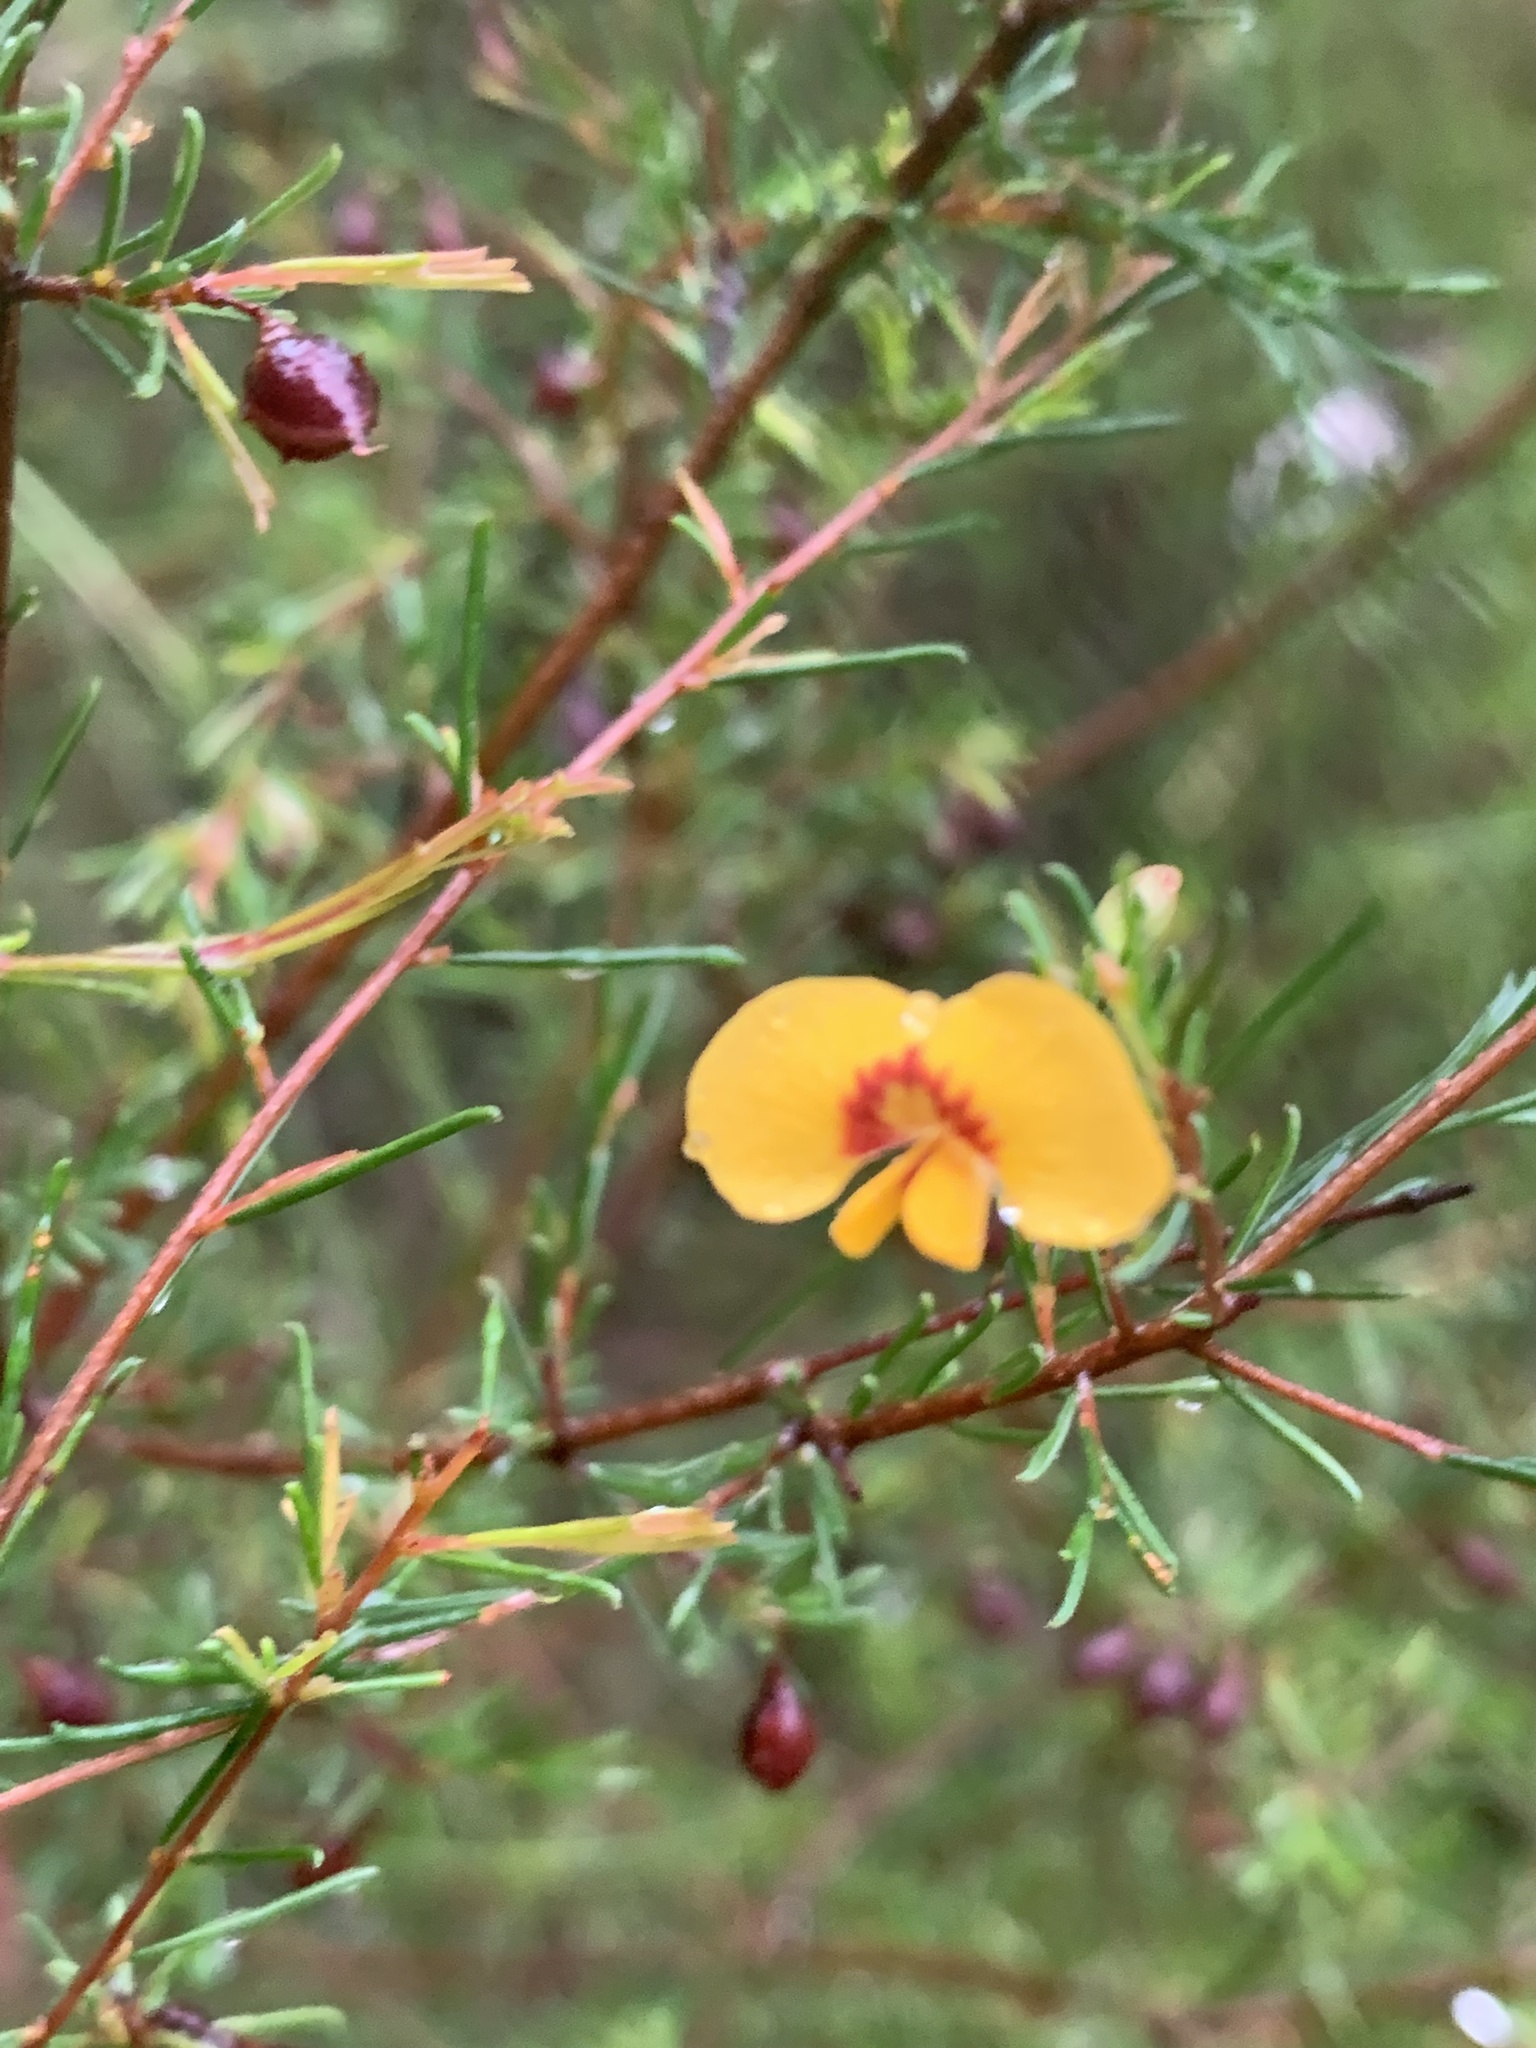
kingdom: Plantae
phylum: Tracheophyta
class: Magnoliopsida
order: Fabales
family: Fabaceae
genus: Dillwynia
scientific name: Dillwynia tenuifolia
